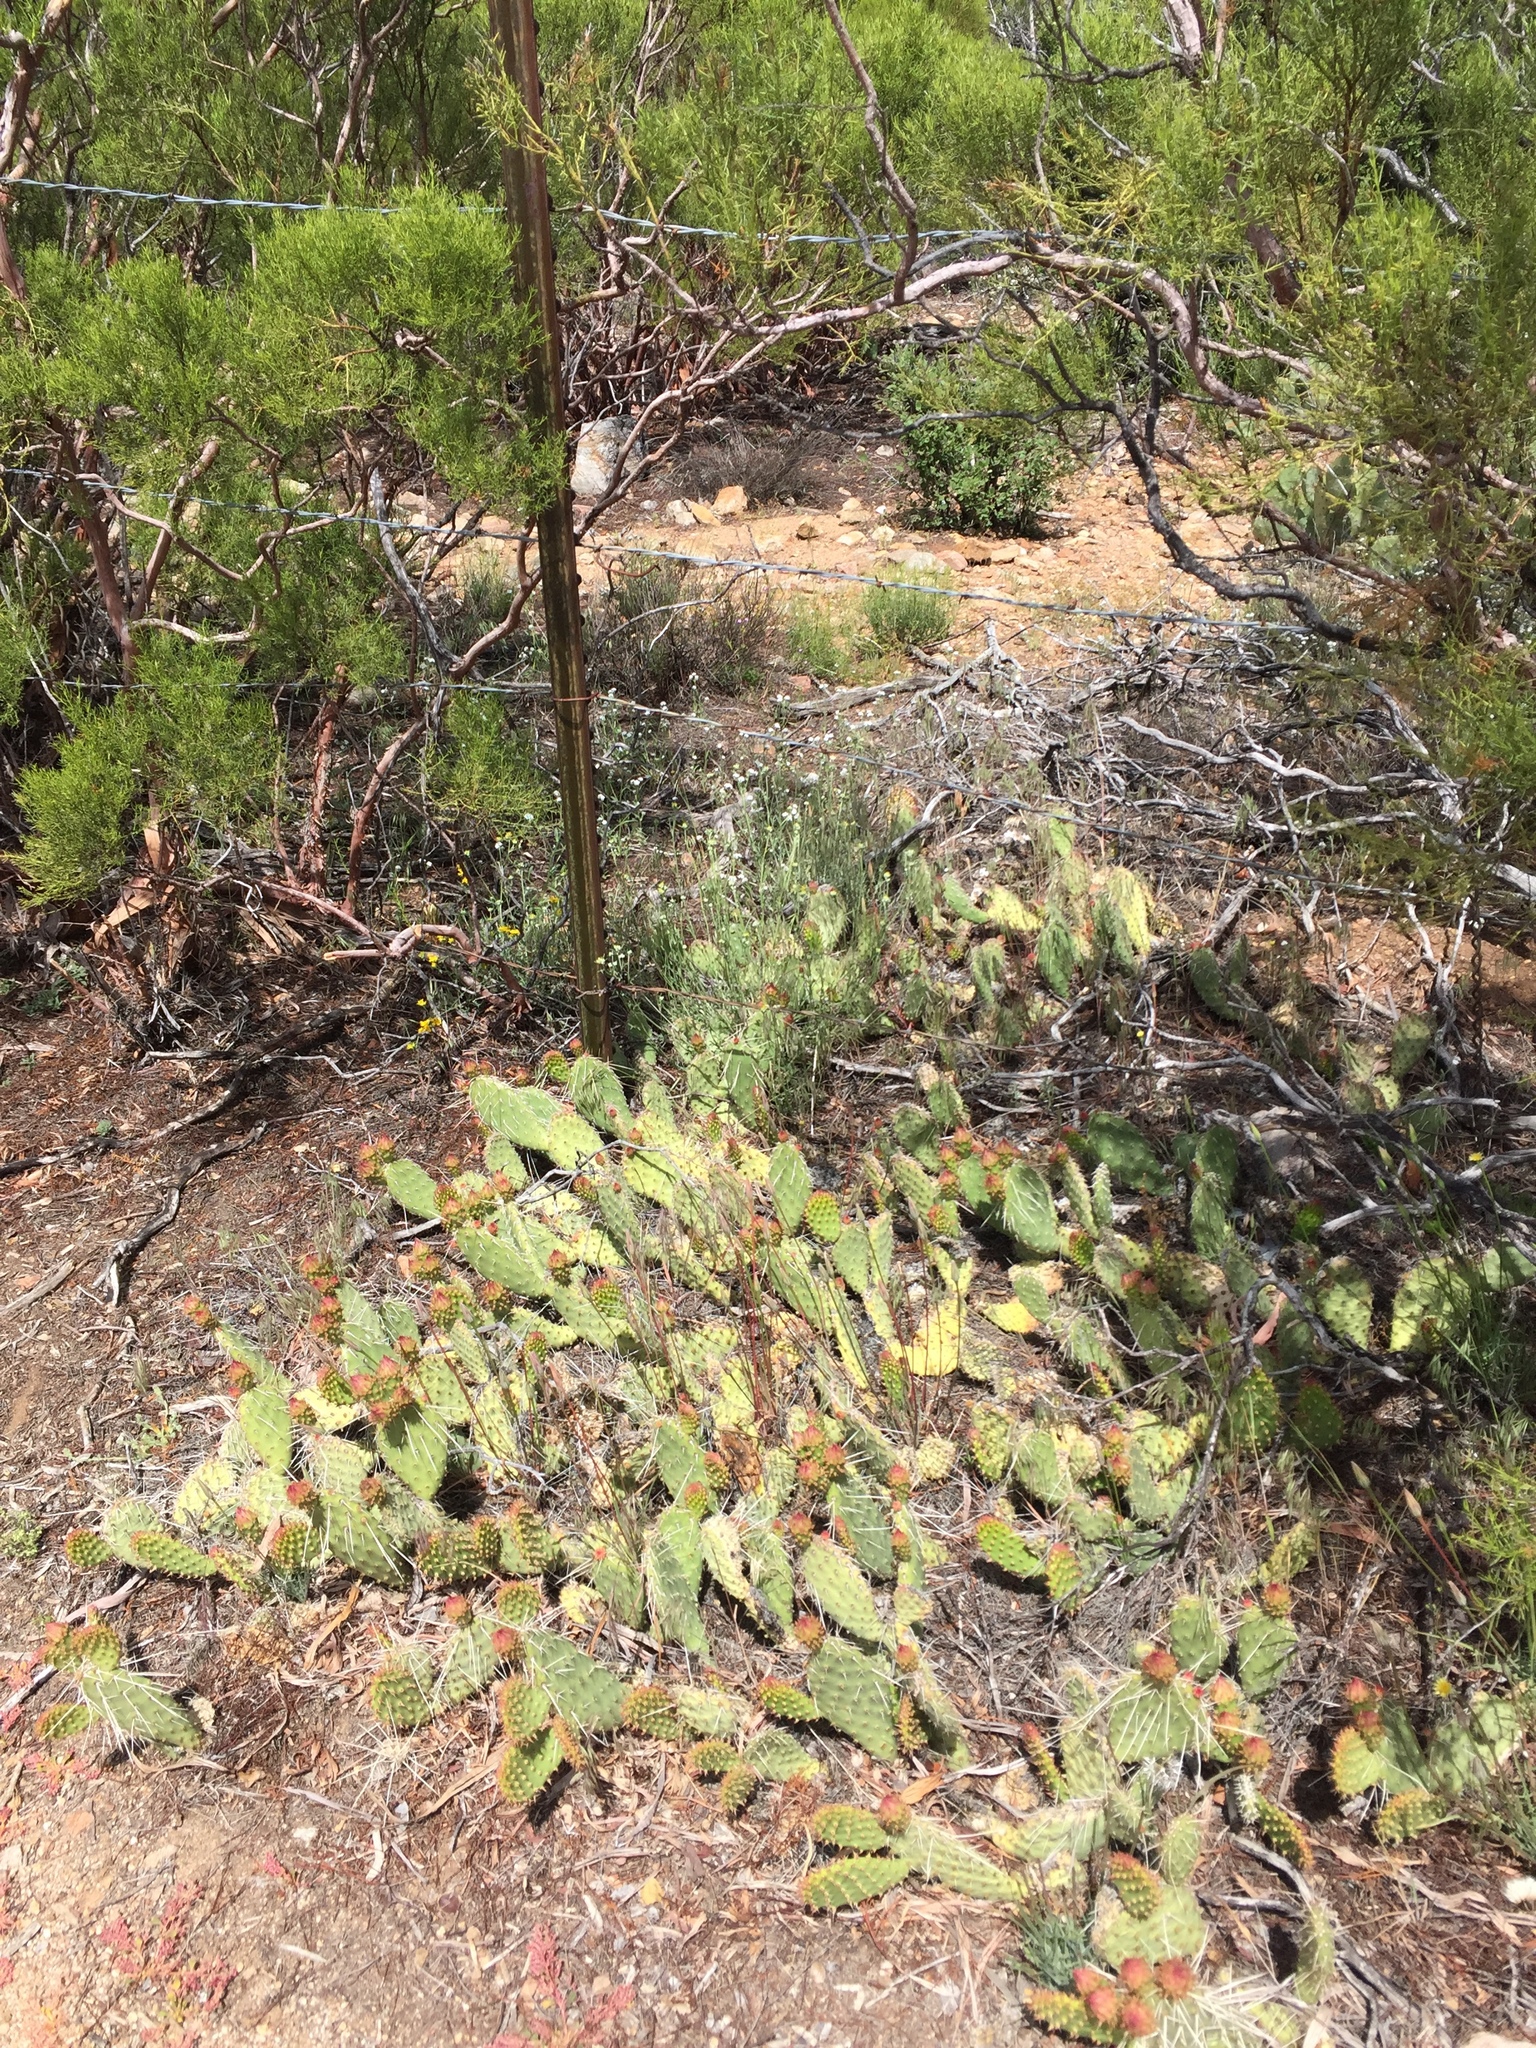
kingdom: Plantae
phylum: Tracheophyta
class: Magnoliopsida
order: Caryophyllales
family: Cactaceae
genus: Opuntia
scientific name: Opuntia polyacantha
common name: Plains prickly-pear
